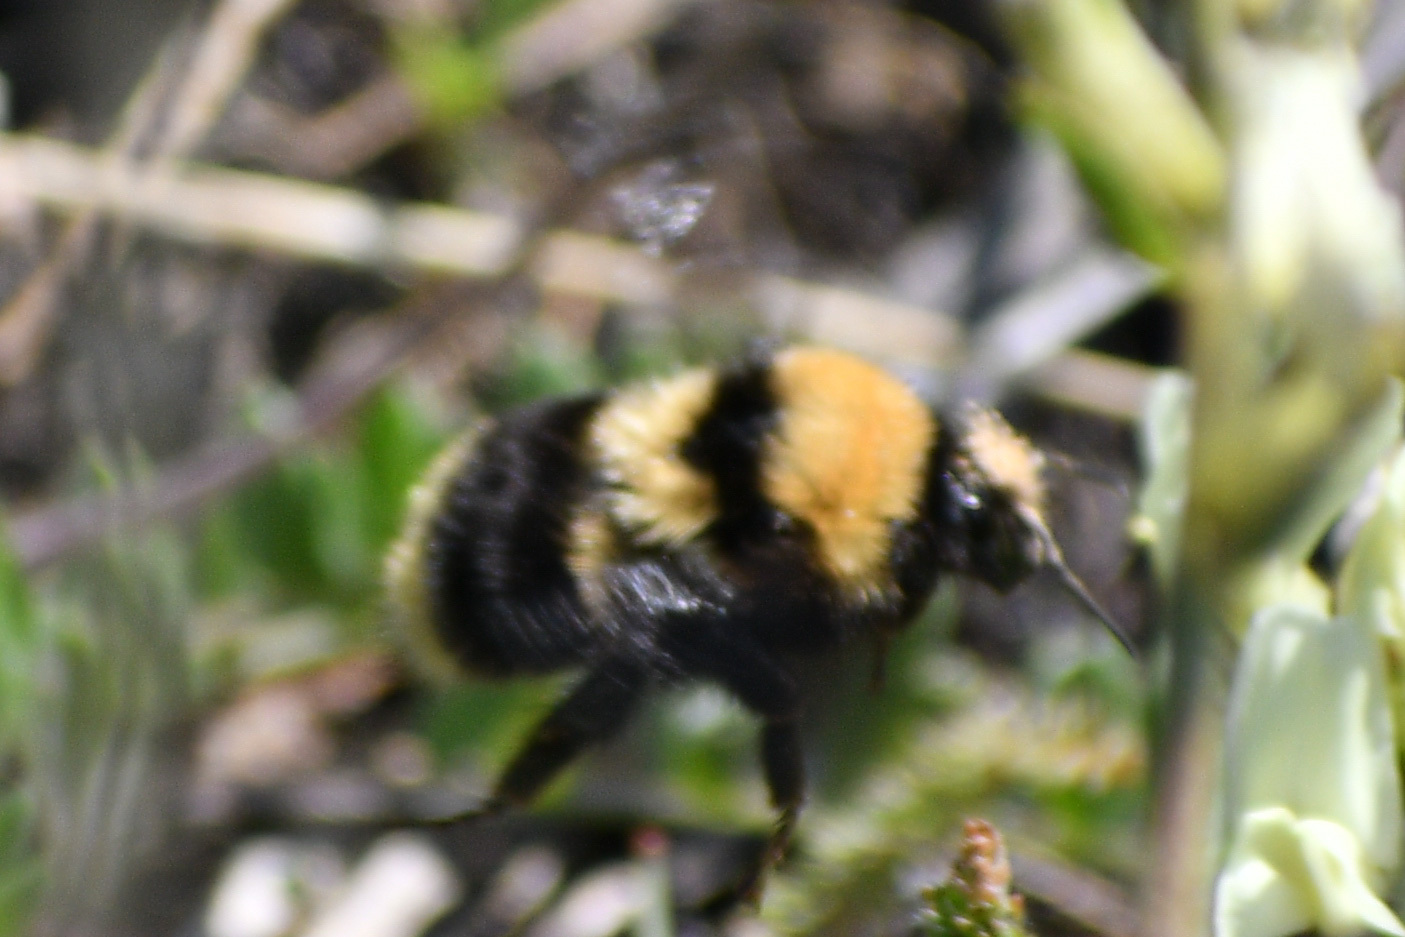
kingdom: Animalia
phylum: Arthropoda
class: Insecta
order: Hymenoptera
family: Apidae
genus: Bombus
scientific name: Bombus californicus
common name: California bumble bee
